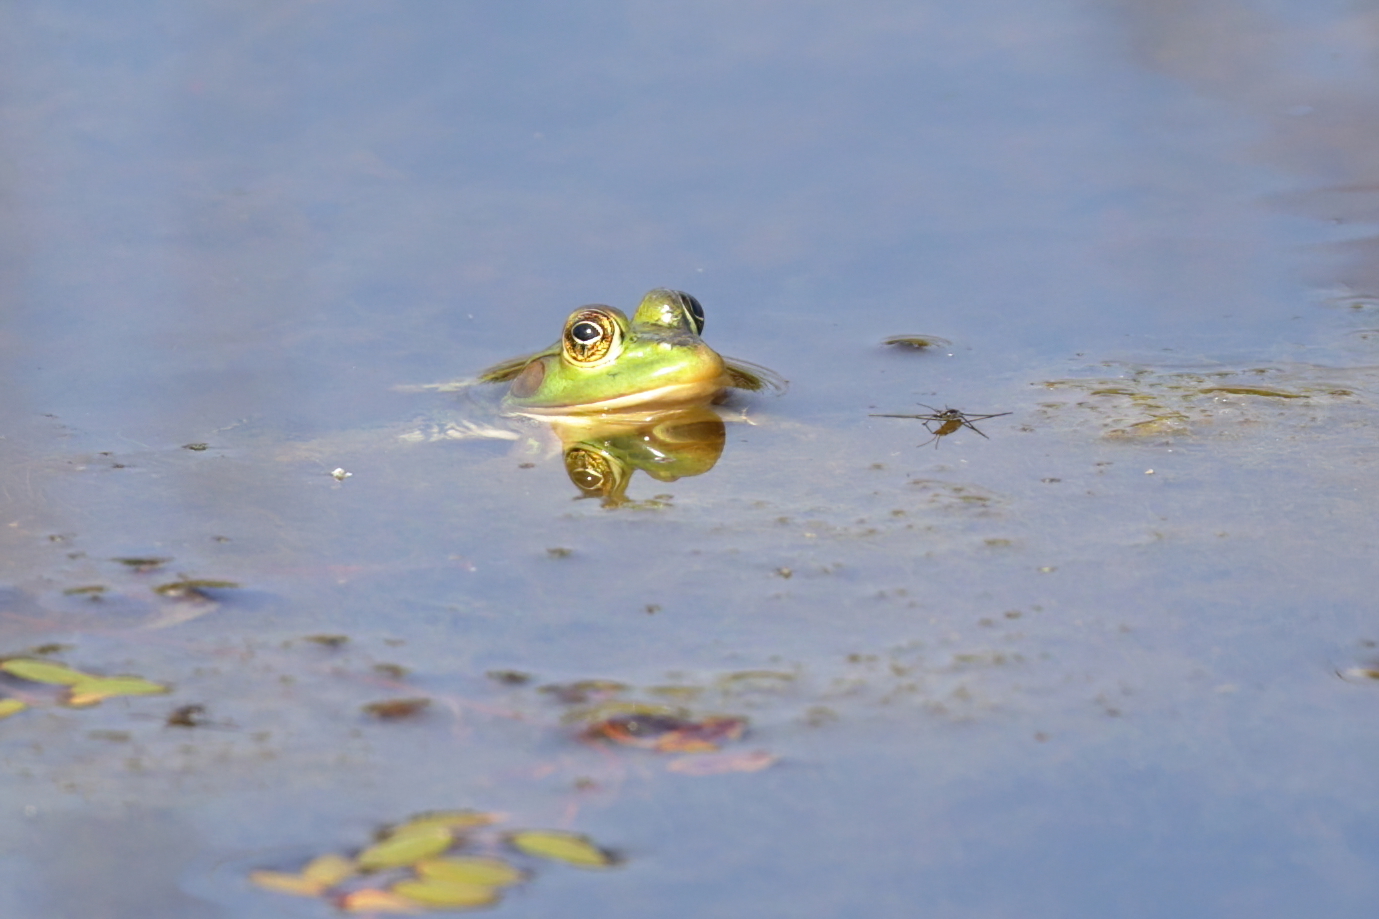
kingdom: Animalia
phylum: Chordata
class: Amphibia
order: Anura
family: Ranidae
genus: Lithobates
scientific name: Lithobates grylio
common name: Pig frog
